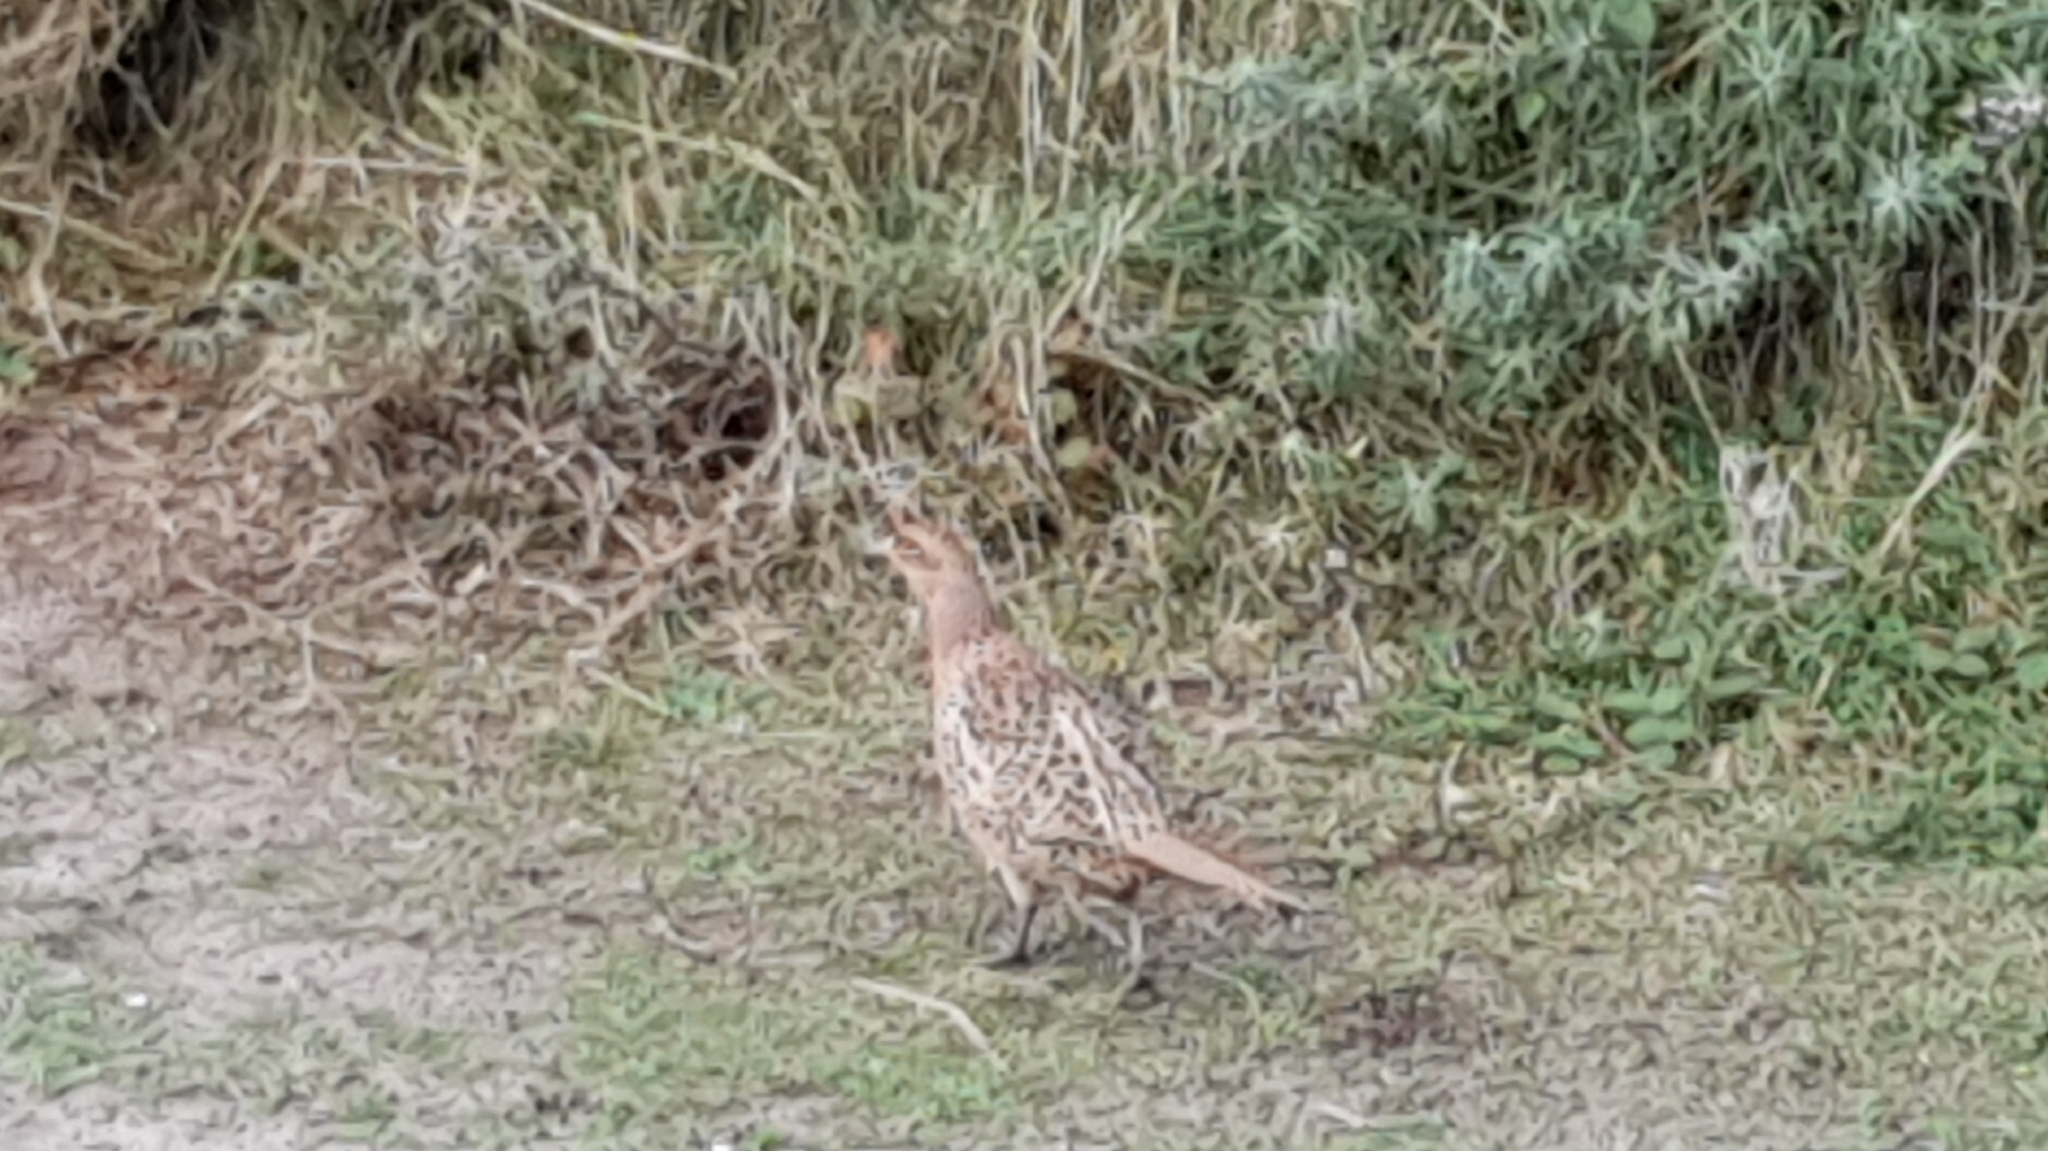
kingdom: Animalia
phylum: Chordata
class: Aves
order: Galliformes
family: Phasianidae
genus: Phasianus
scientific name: Phasianus colchicus
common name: Common pheasant
